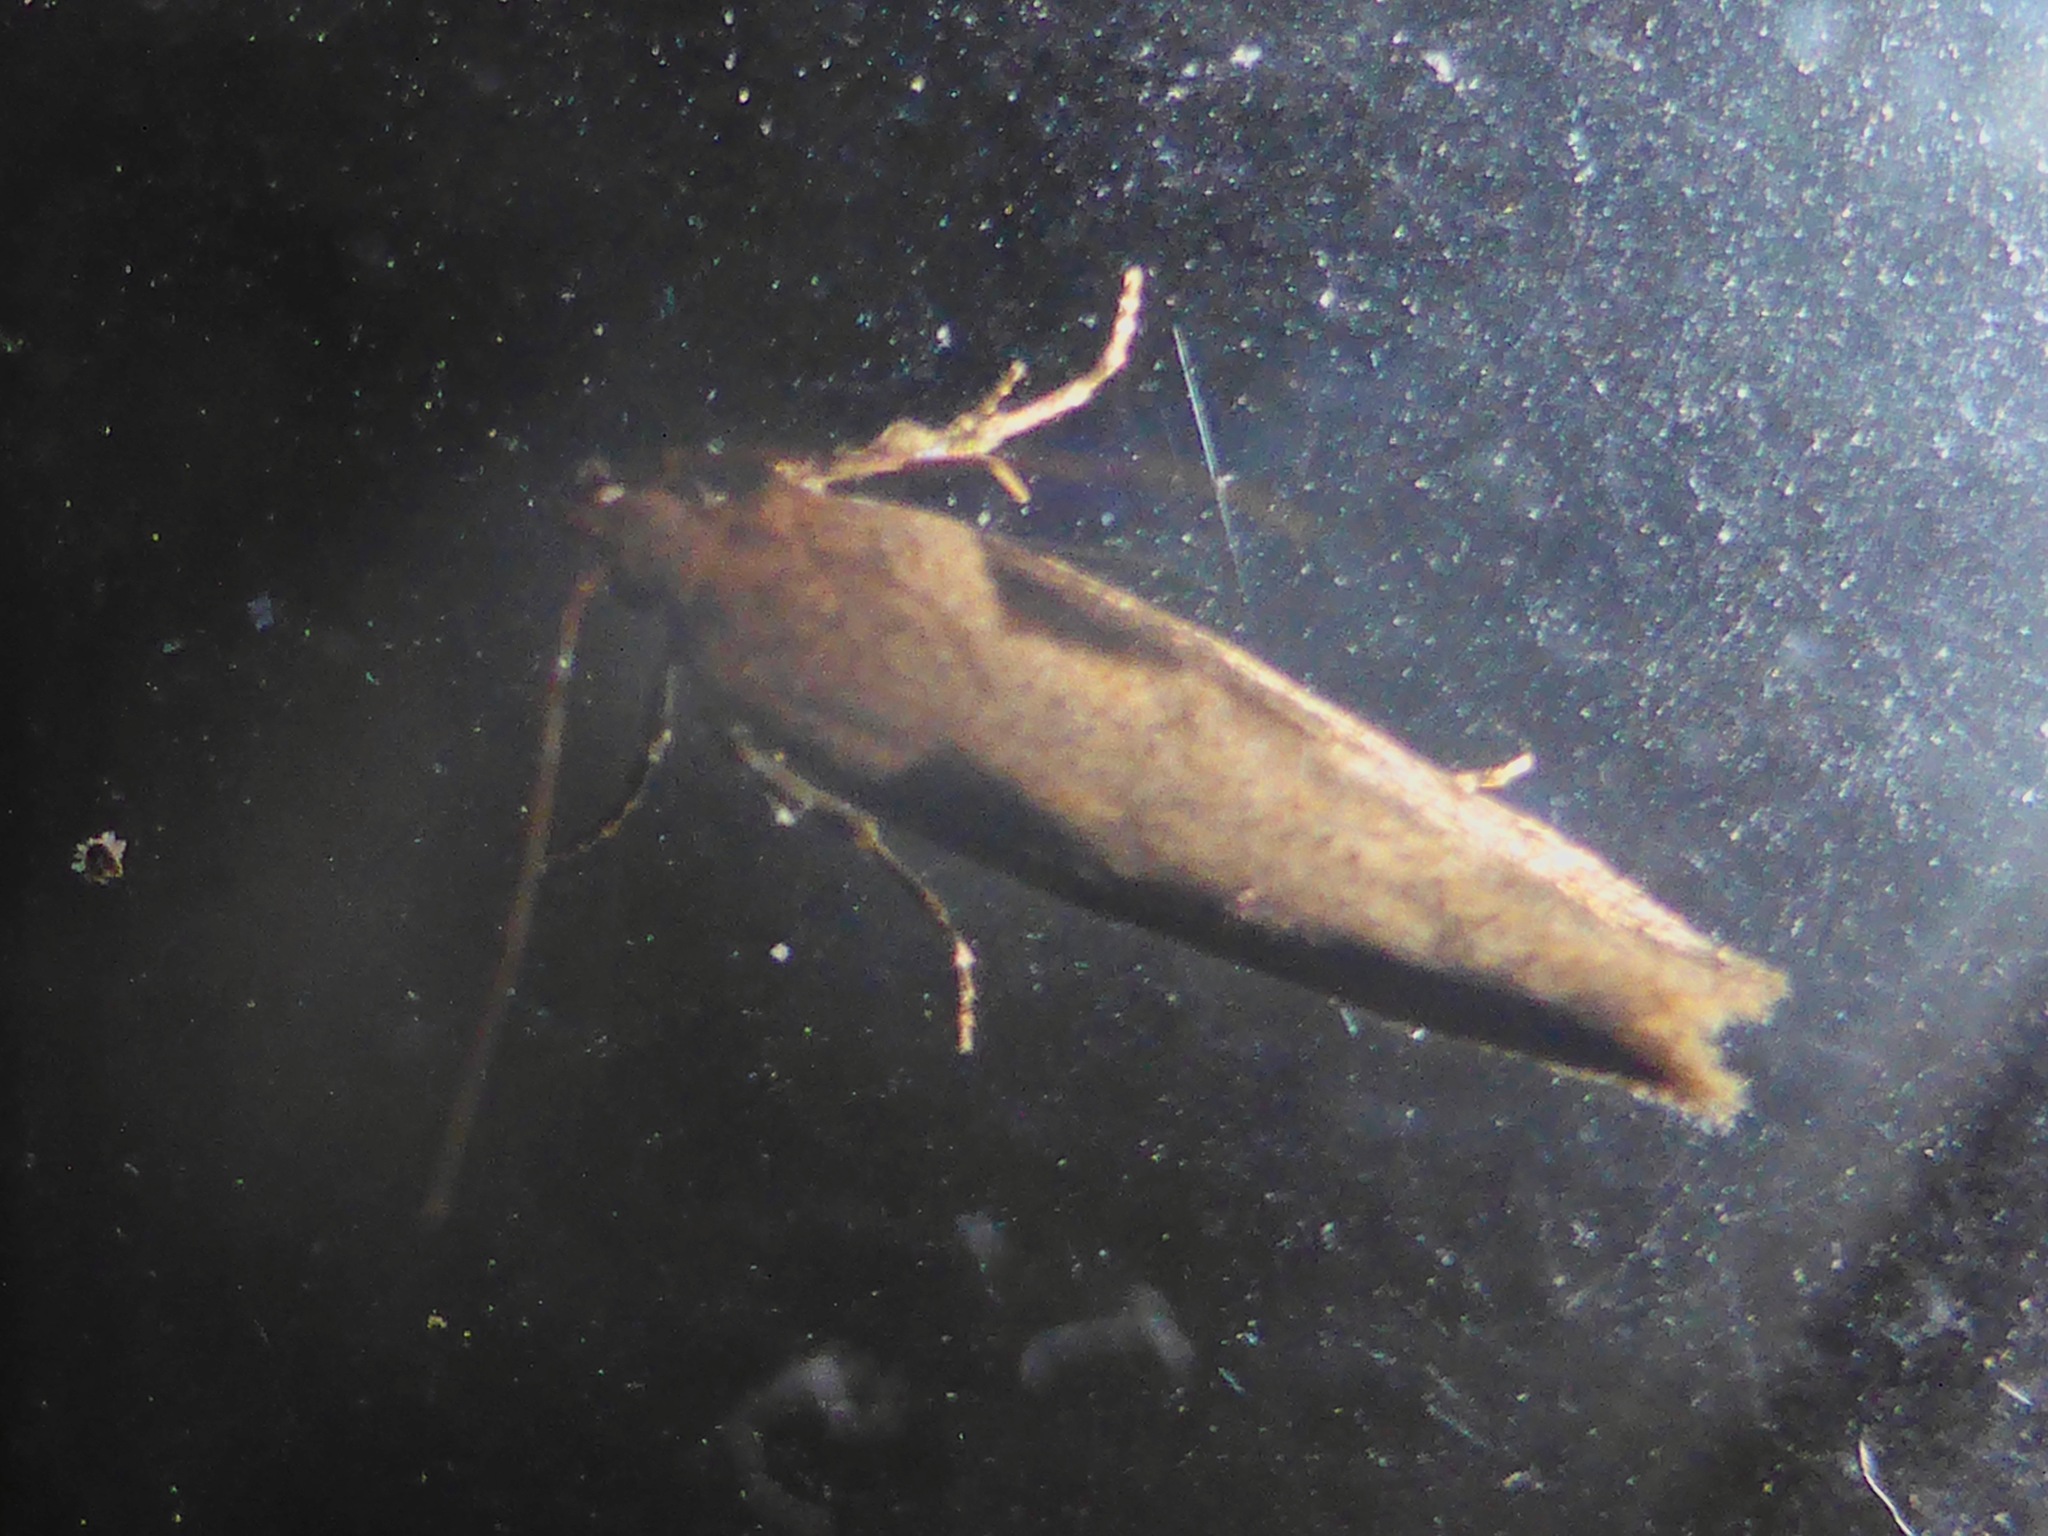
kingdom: Animalia
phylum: Arthropoda
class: Insecta
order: Lepidoptera
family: Gelechiidae
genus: Symmetrischema
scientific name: Symmetrischema tangolias
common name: Moth
